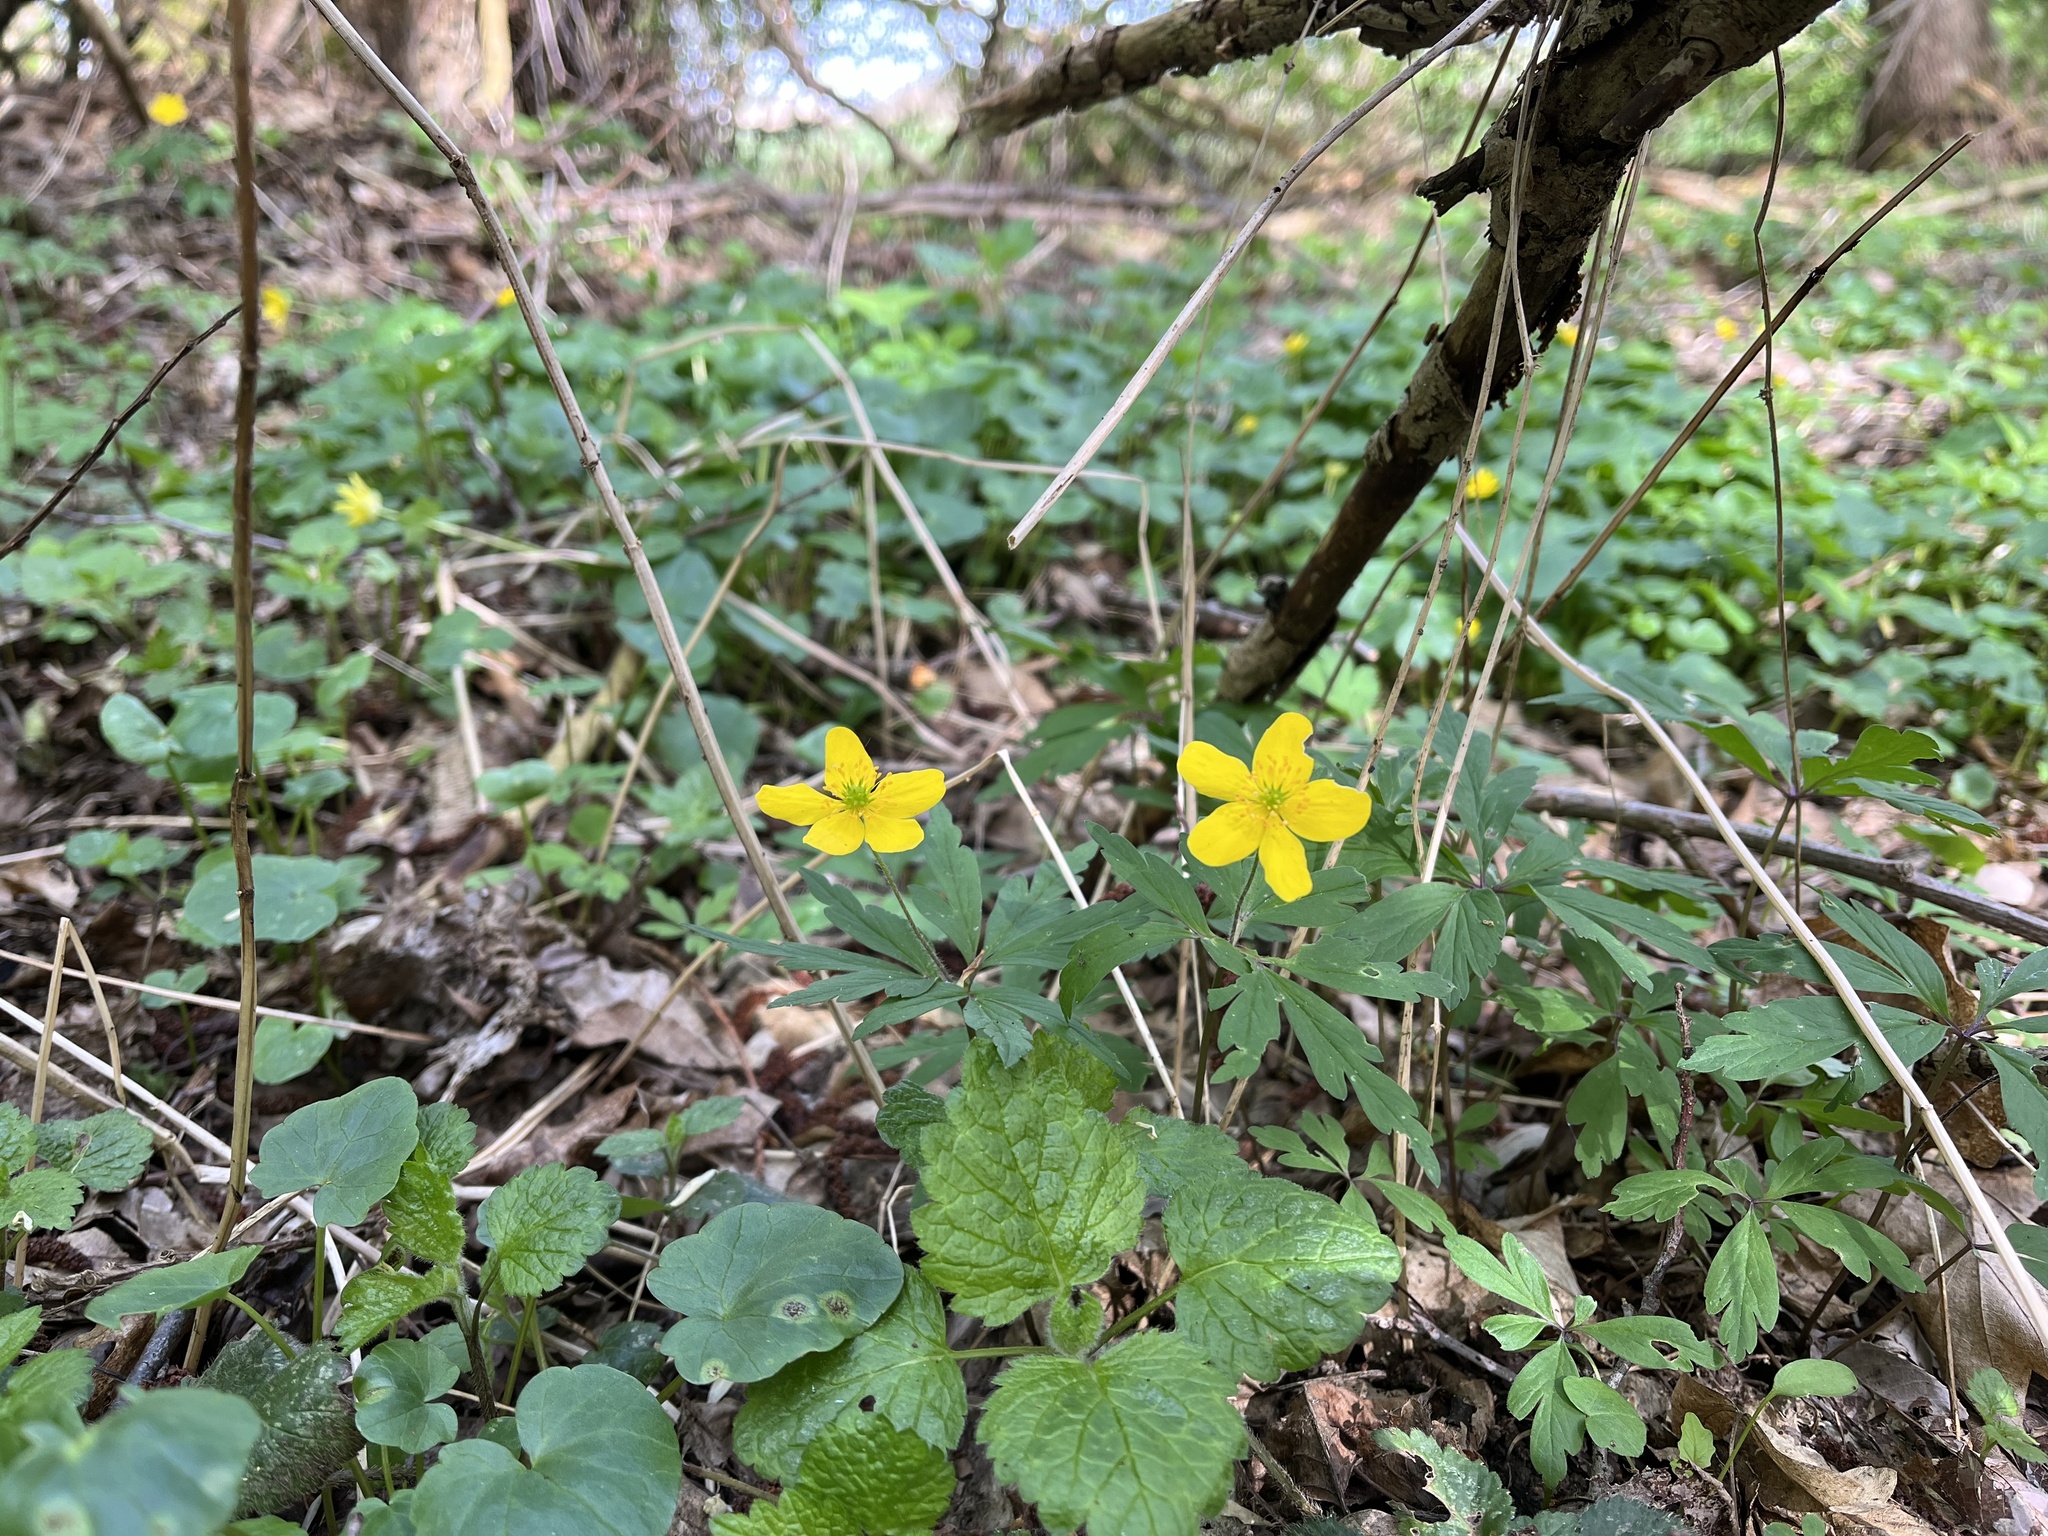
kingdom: Plantae
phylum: Tracheophyta
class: Magnoliopsida
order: Ranunculales
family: Ranunculaceae
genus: Anemone
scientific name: Anemone ranunculoides
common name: Yellow anemone
